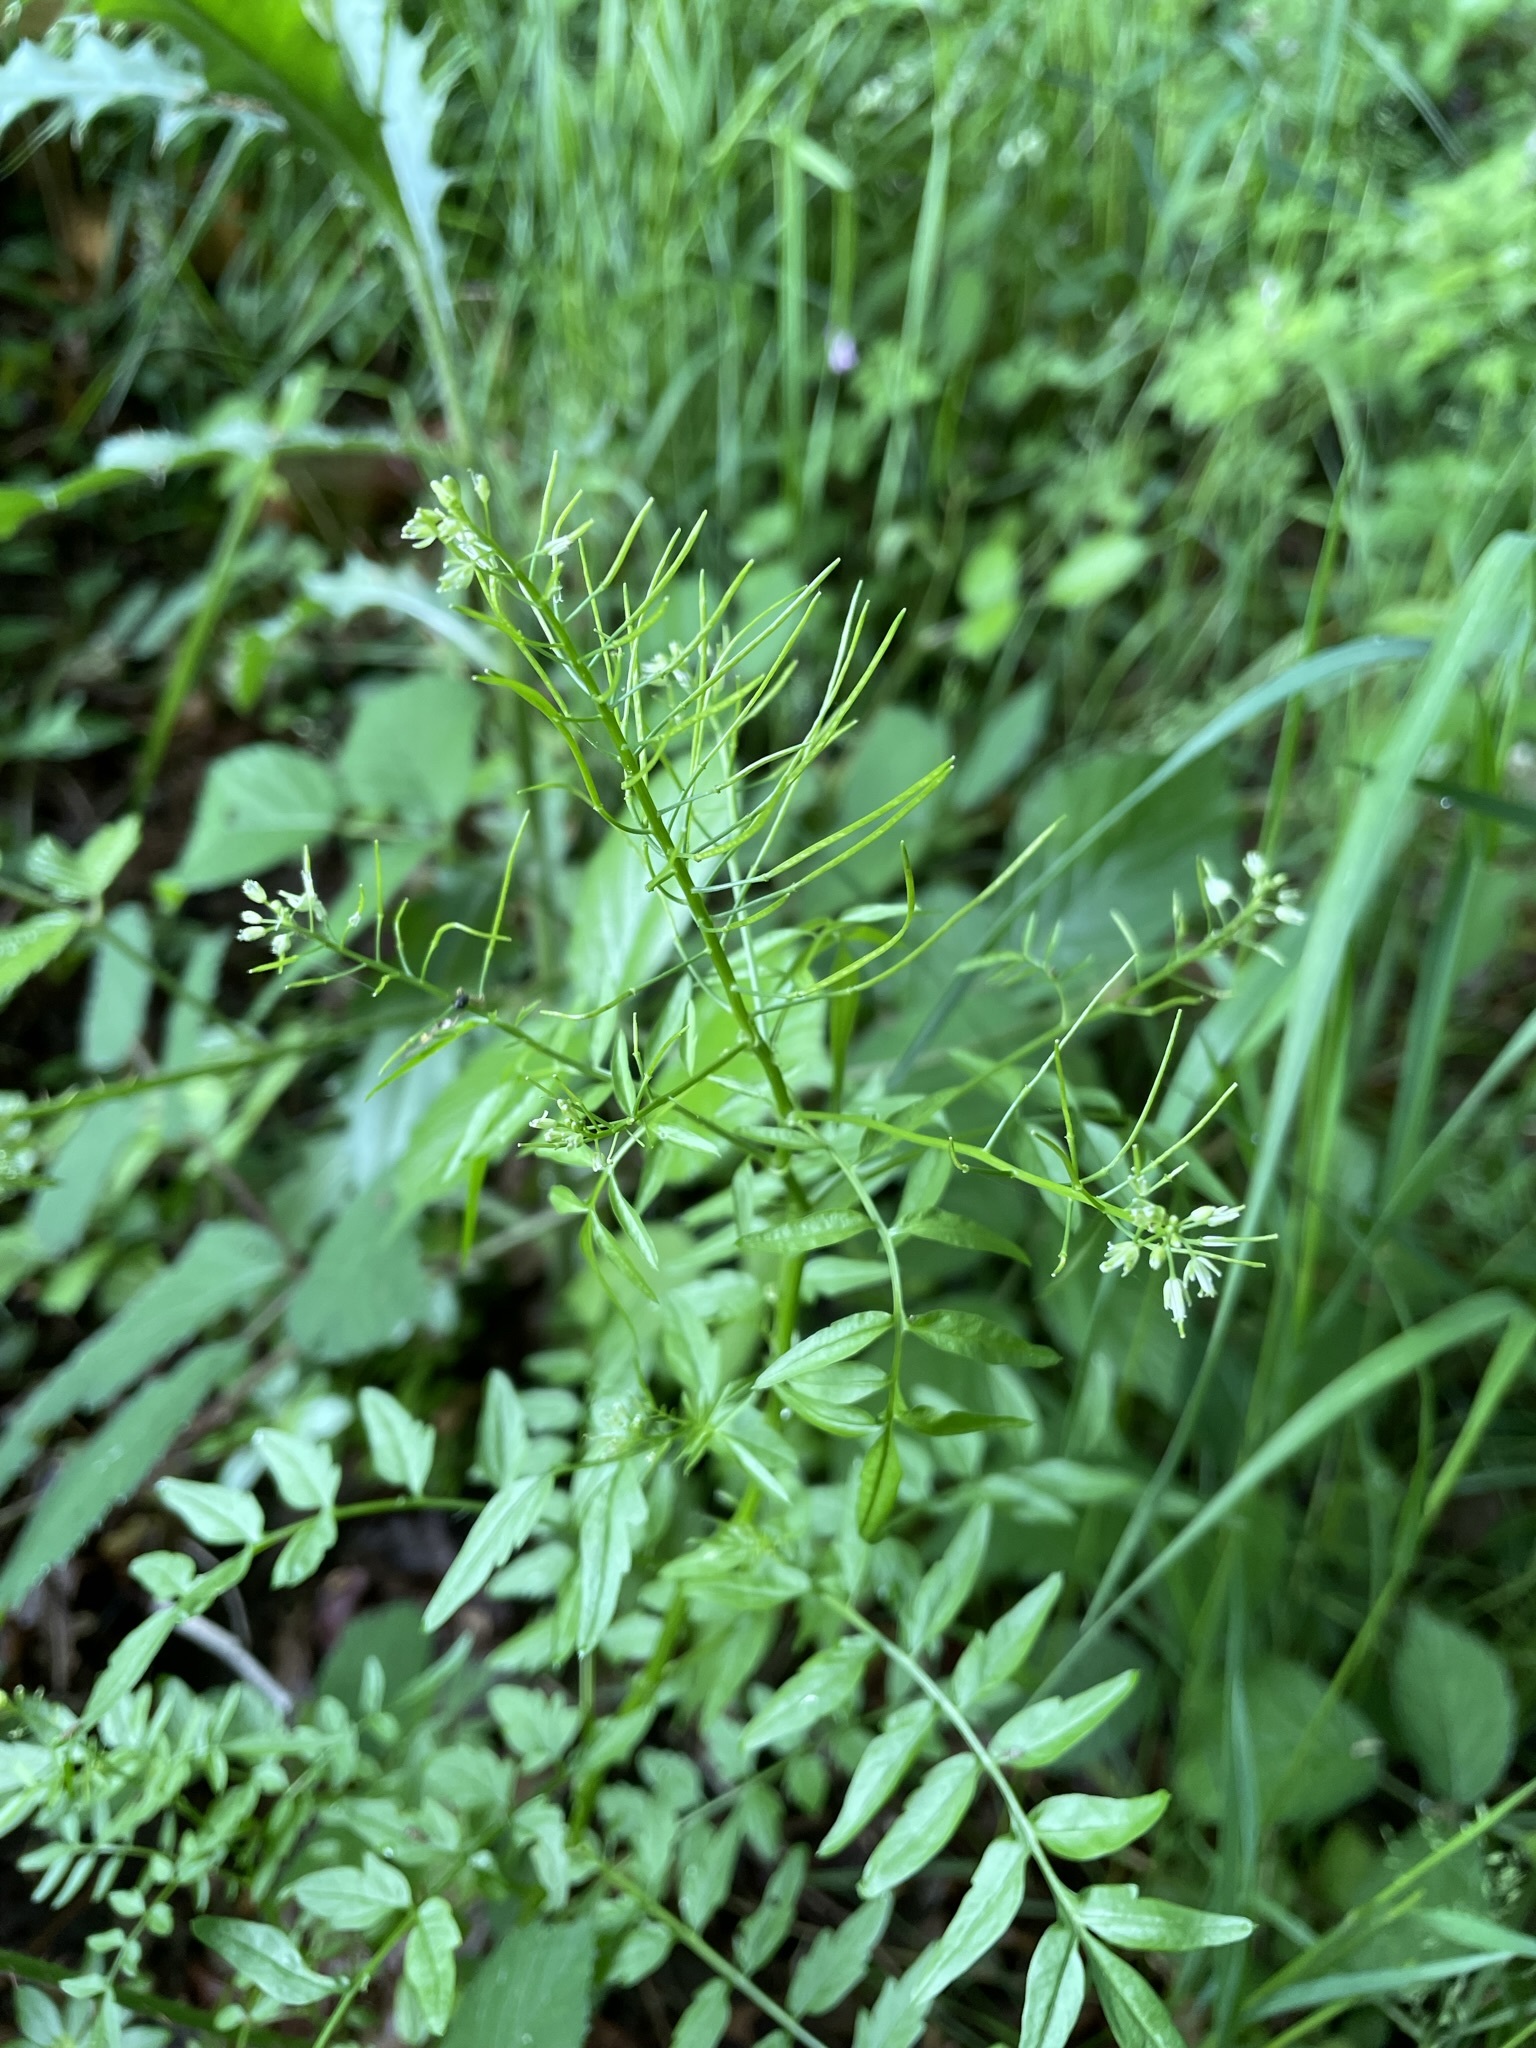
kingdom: Plantae
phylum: Tracheophyta
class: Magnoliopsida
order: Brassicales
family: Brassicaceae
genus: Cardamine
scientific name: Cardamine impatiens
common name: Narrow-leaved bitter-cress
